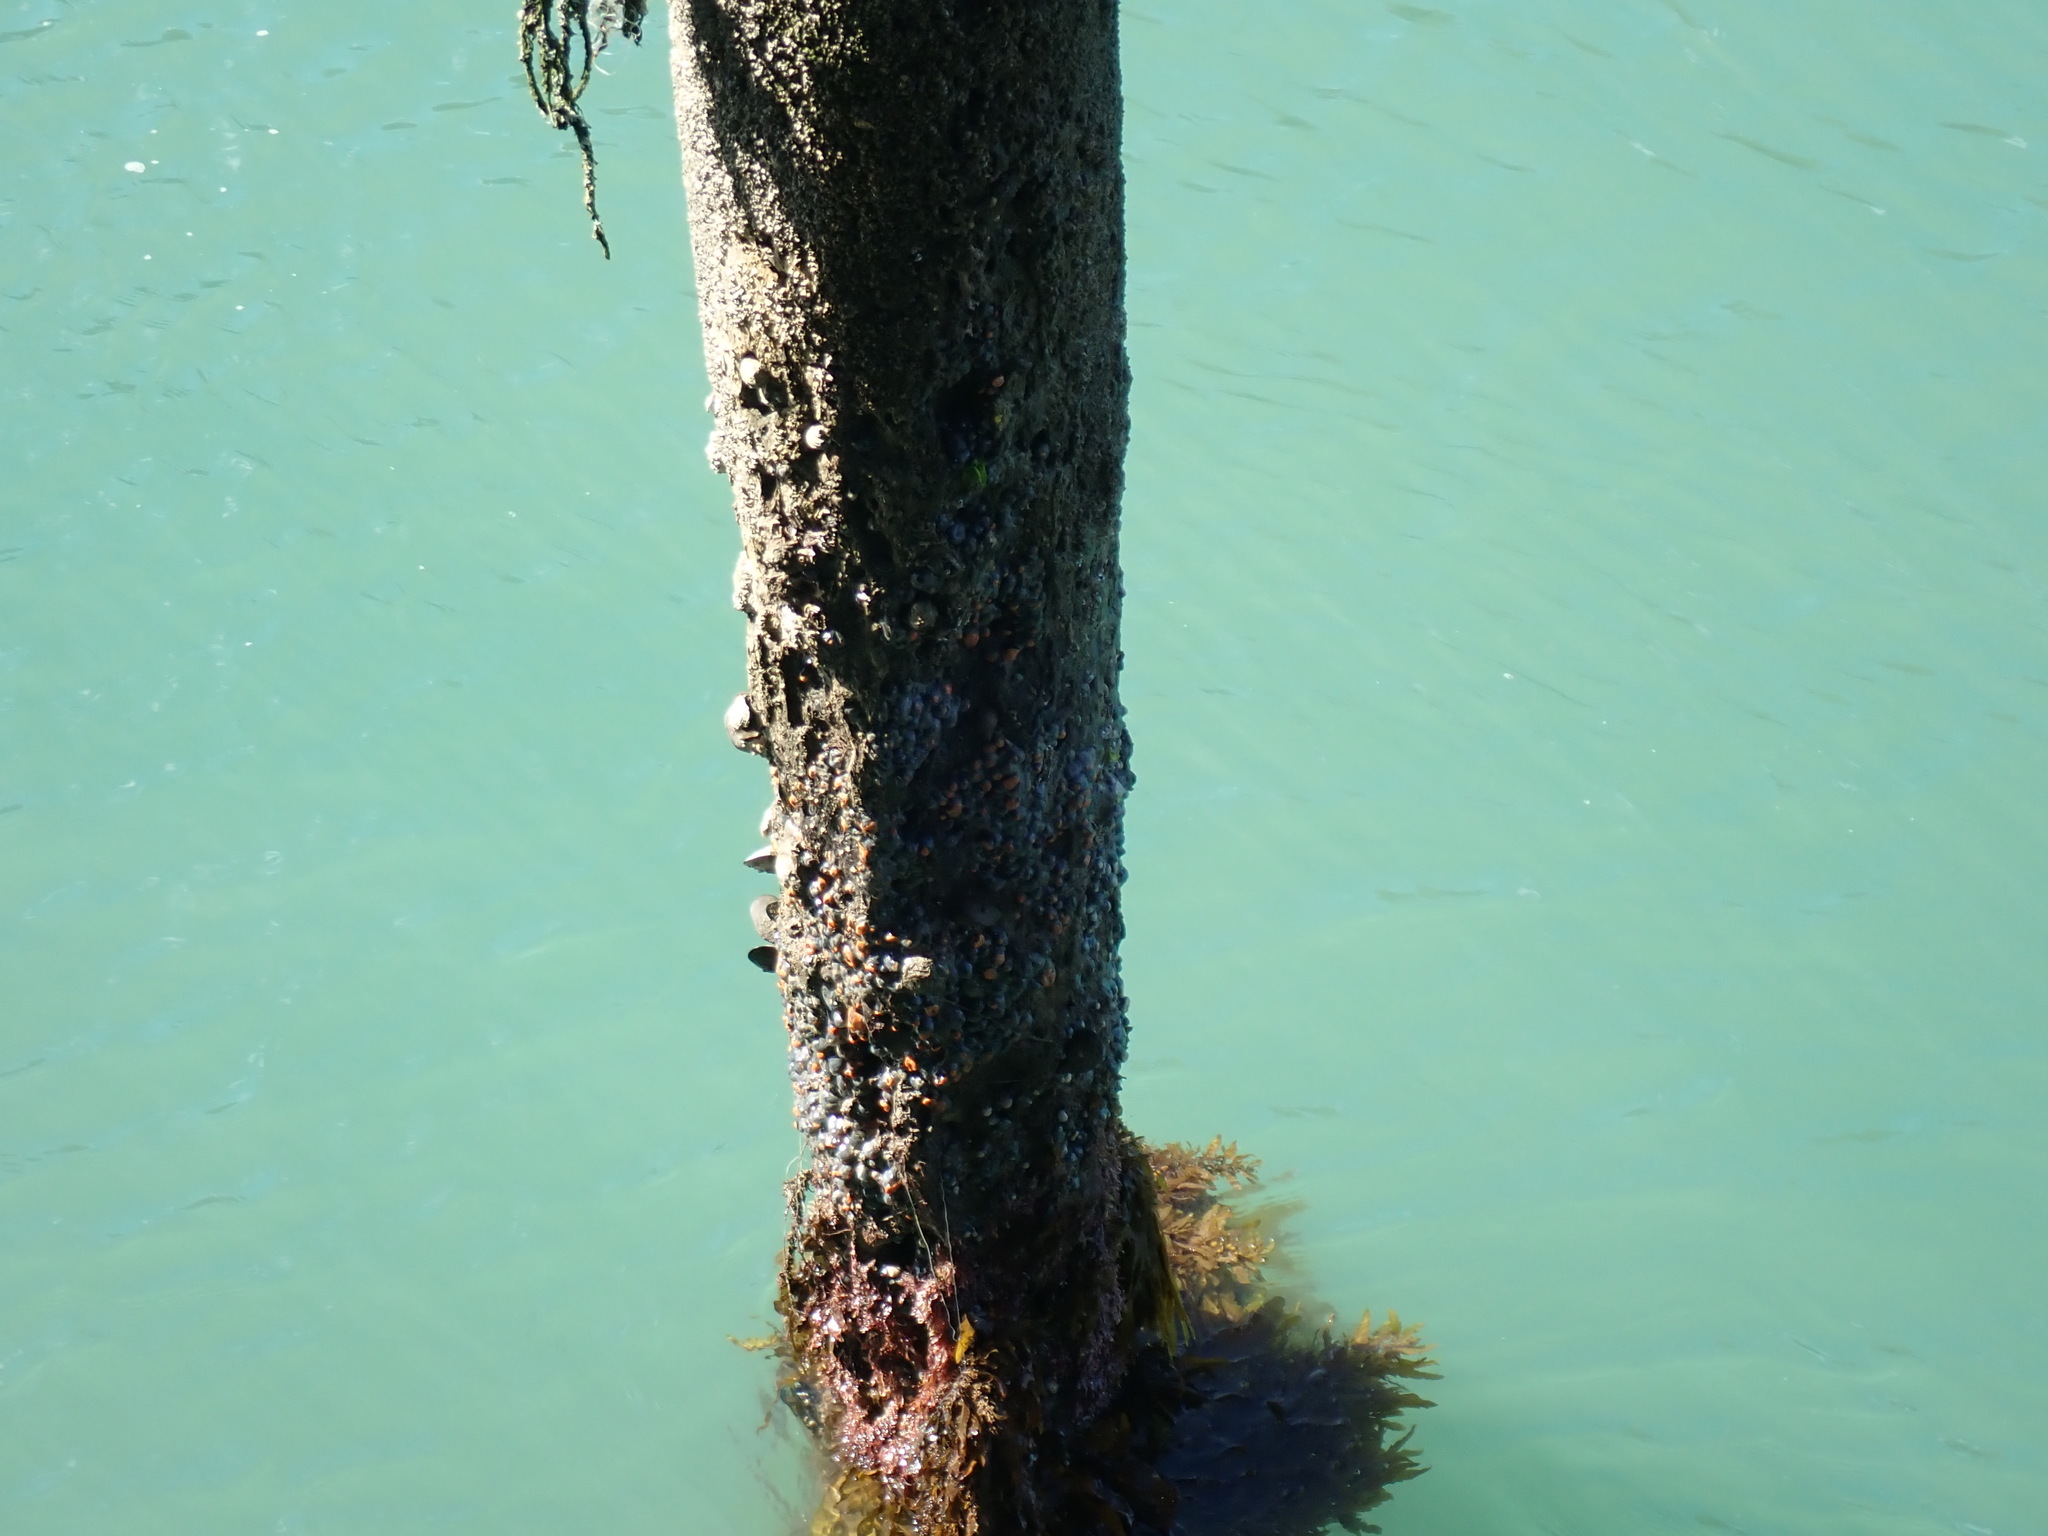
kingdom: Animalia
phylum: Cnidaria
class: Anthozoa
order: Actiniaria
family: Diadumenidae
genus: Diadumene
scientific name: Diadumene neozelanica
